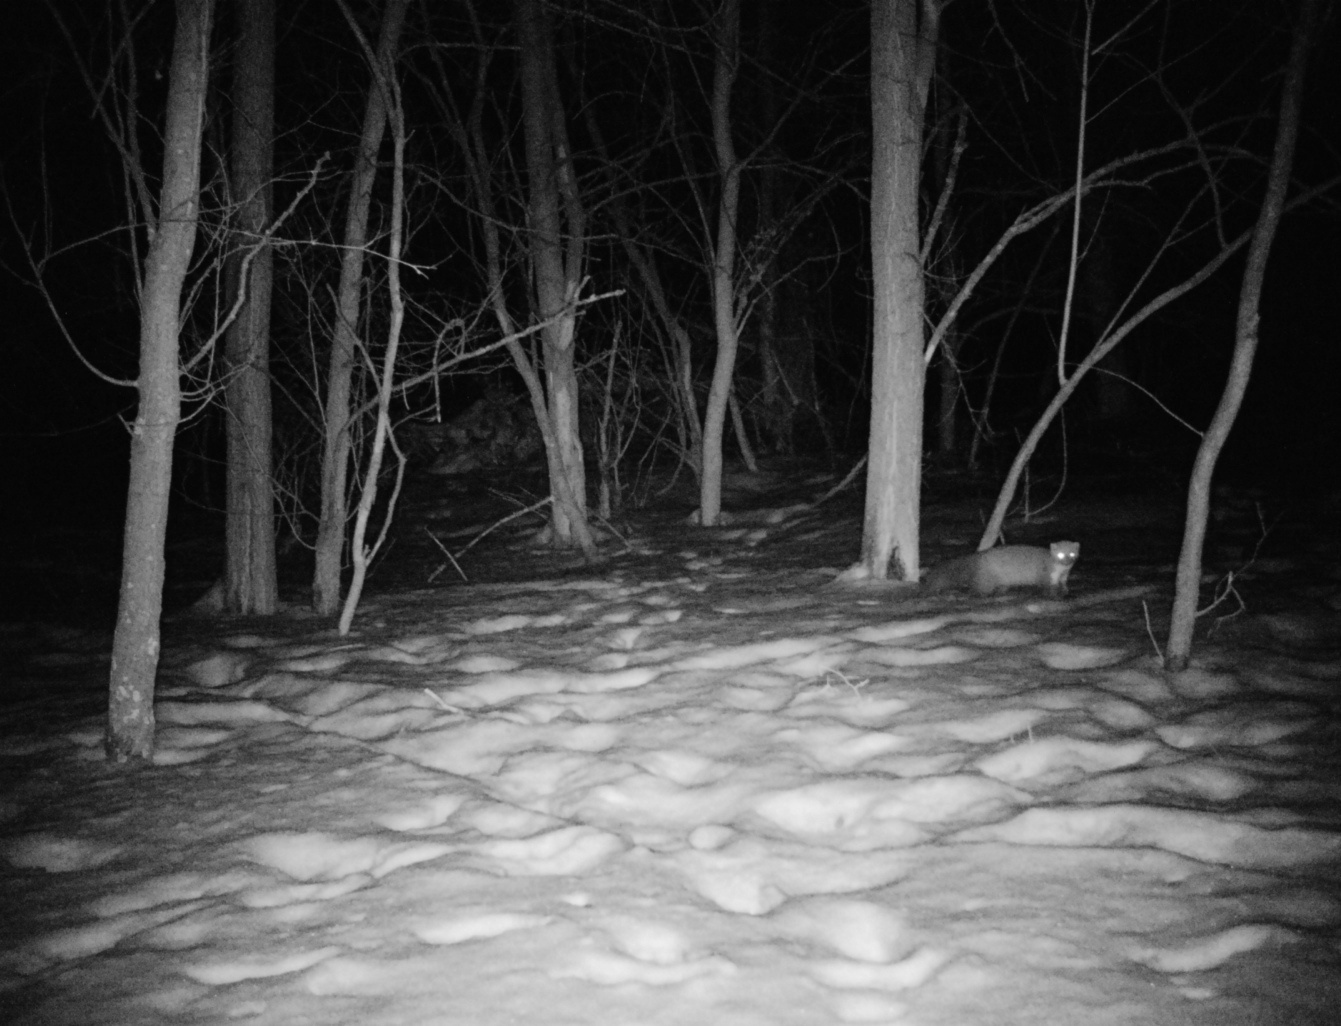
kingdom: Animalia
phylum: Chordata
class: Mammalia
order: Carnivora
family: Mustelidae
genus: Martes
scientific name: Martes foina
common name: Beech marten
